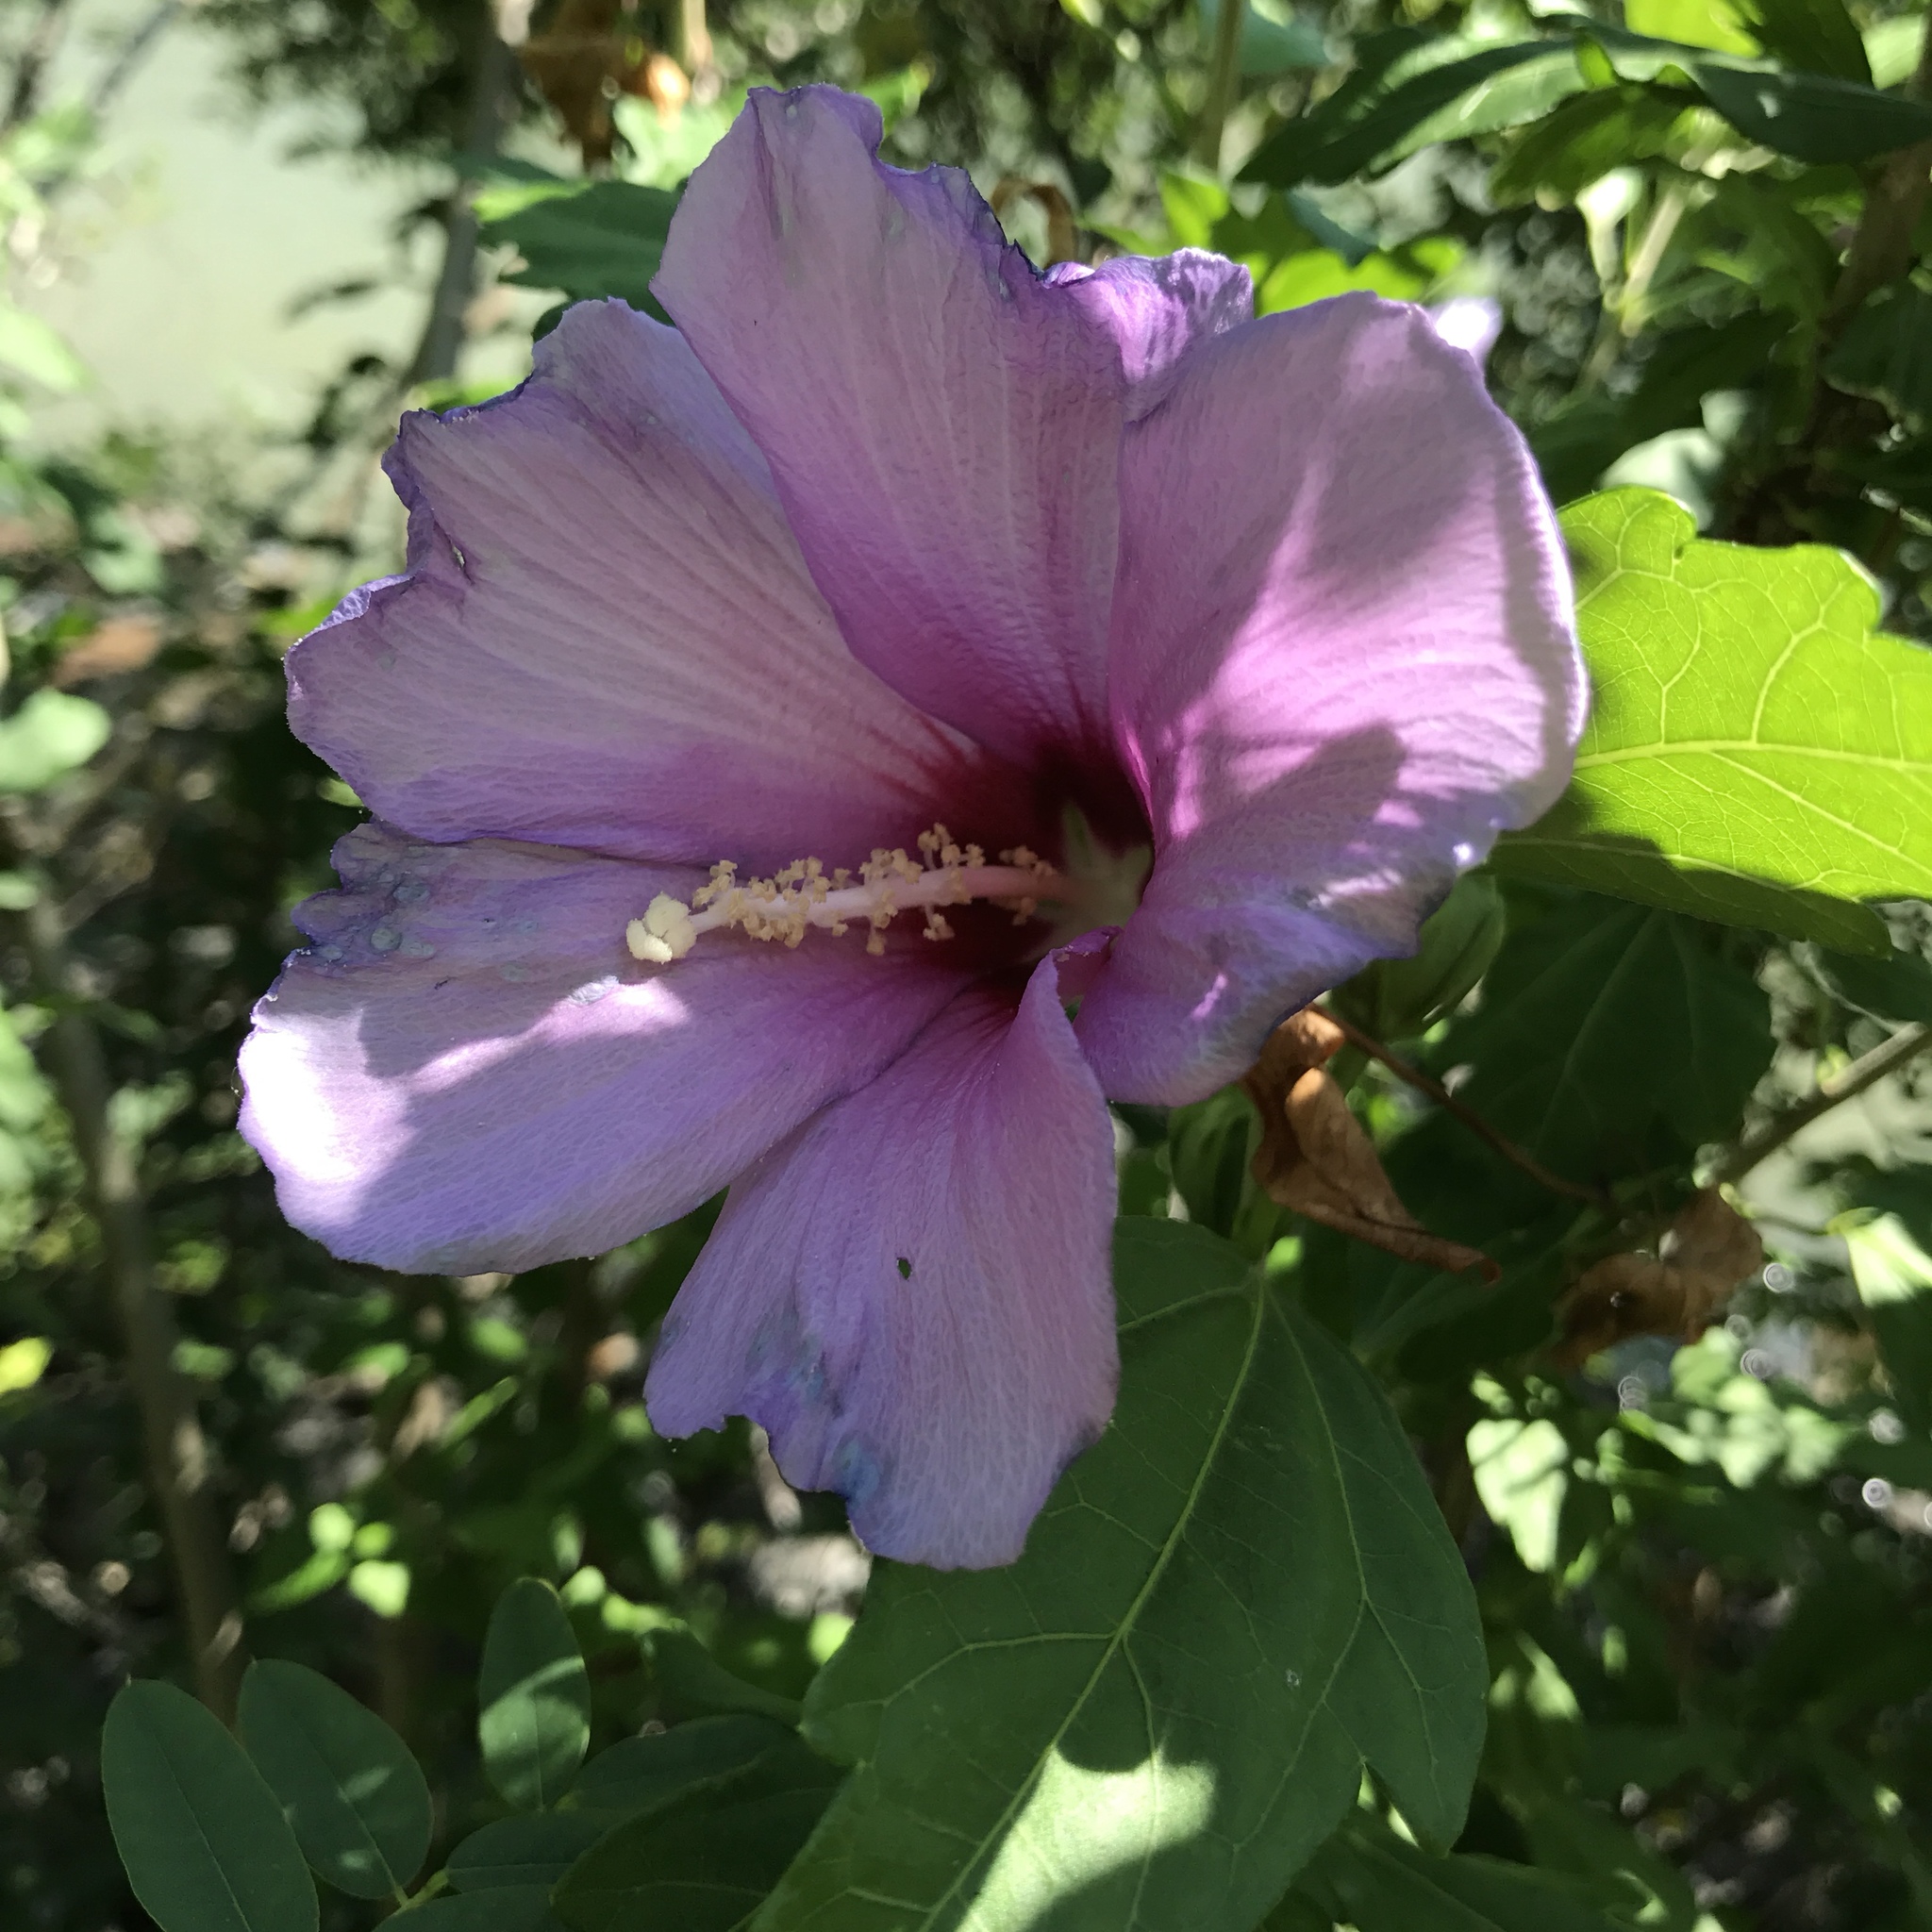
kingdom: Plantae
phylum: Tracheophyta
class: Magnoliopsida
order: Malvales
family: Malvaceae
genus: Hibiscus
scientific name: Hibiscus syriacus
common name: Syrian ketmia
